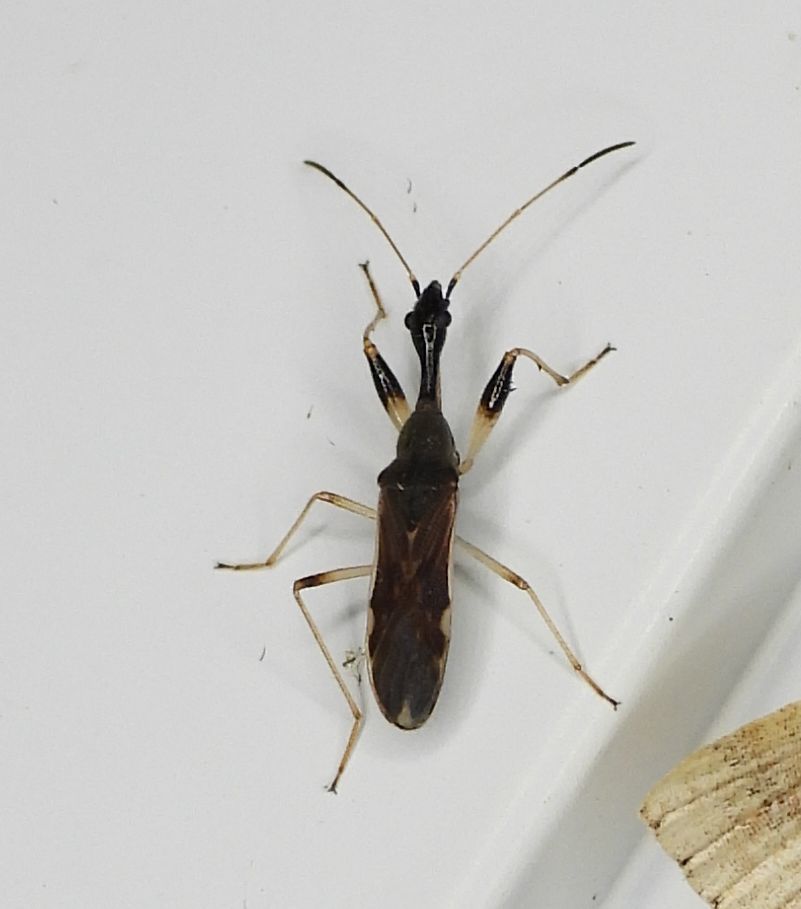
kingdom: Animalia
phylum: Arthropoda
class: Insecta
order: Hemiptera
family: Rhyparochromidae
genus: Myodocha
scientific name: Myodocha serripes
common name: Long-necked seed bug
